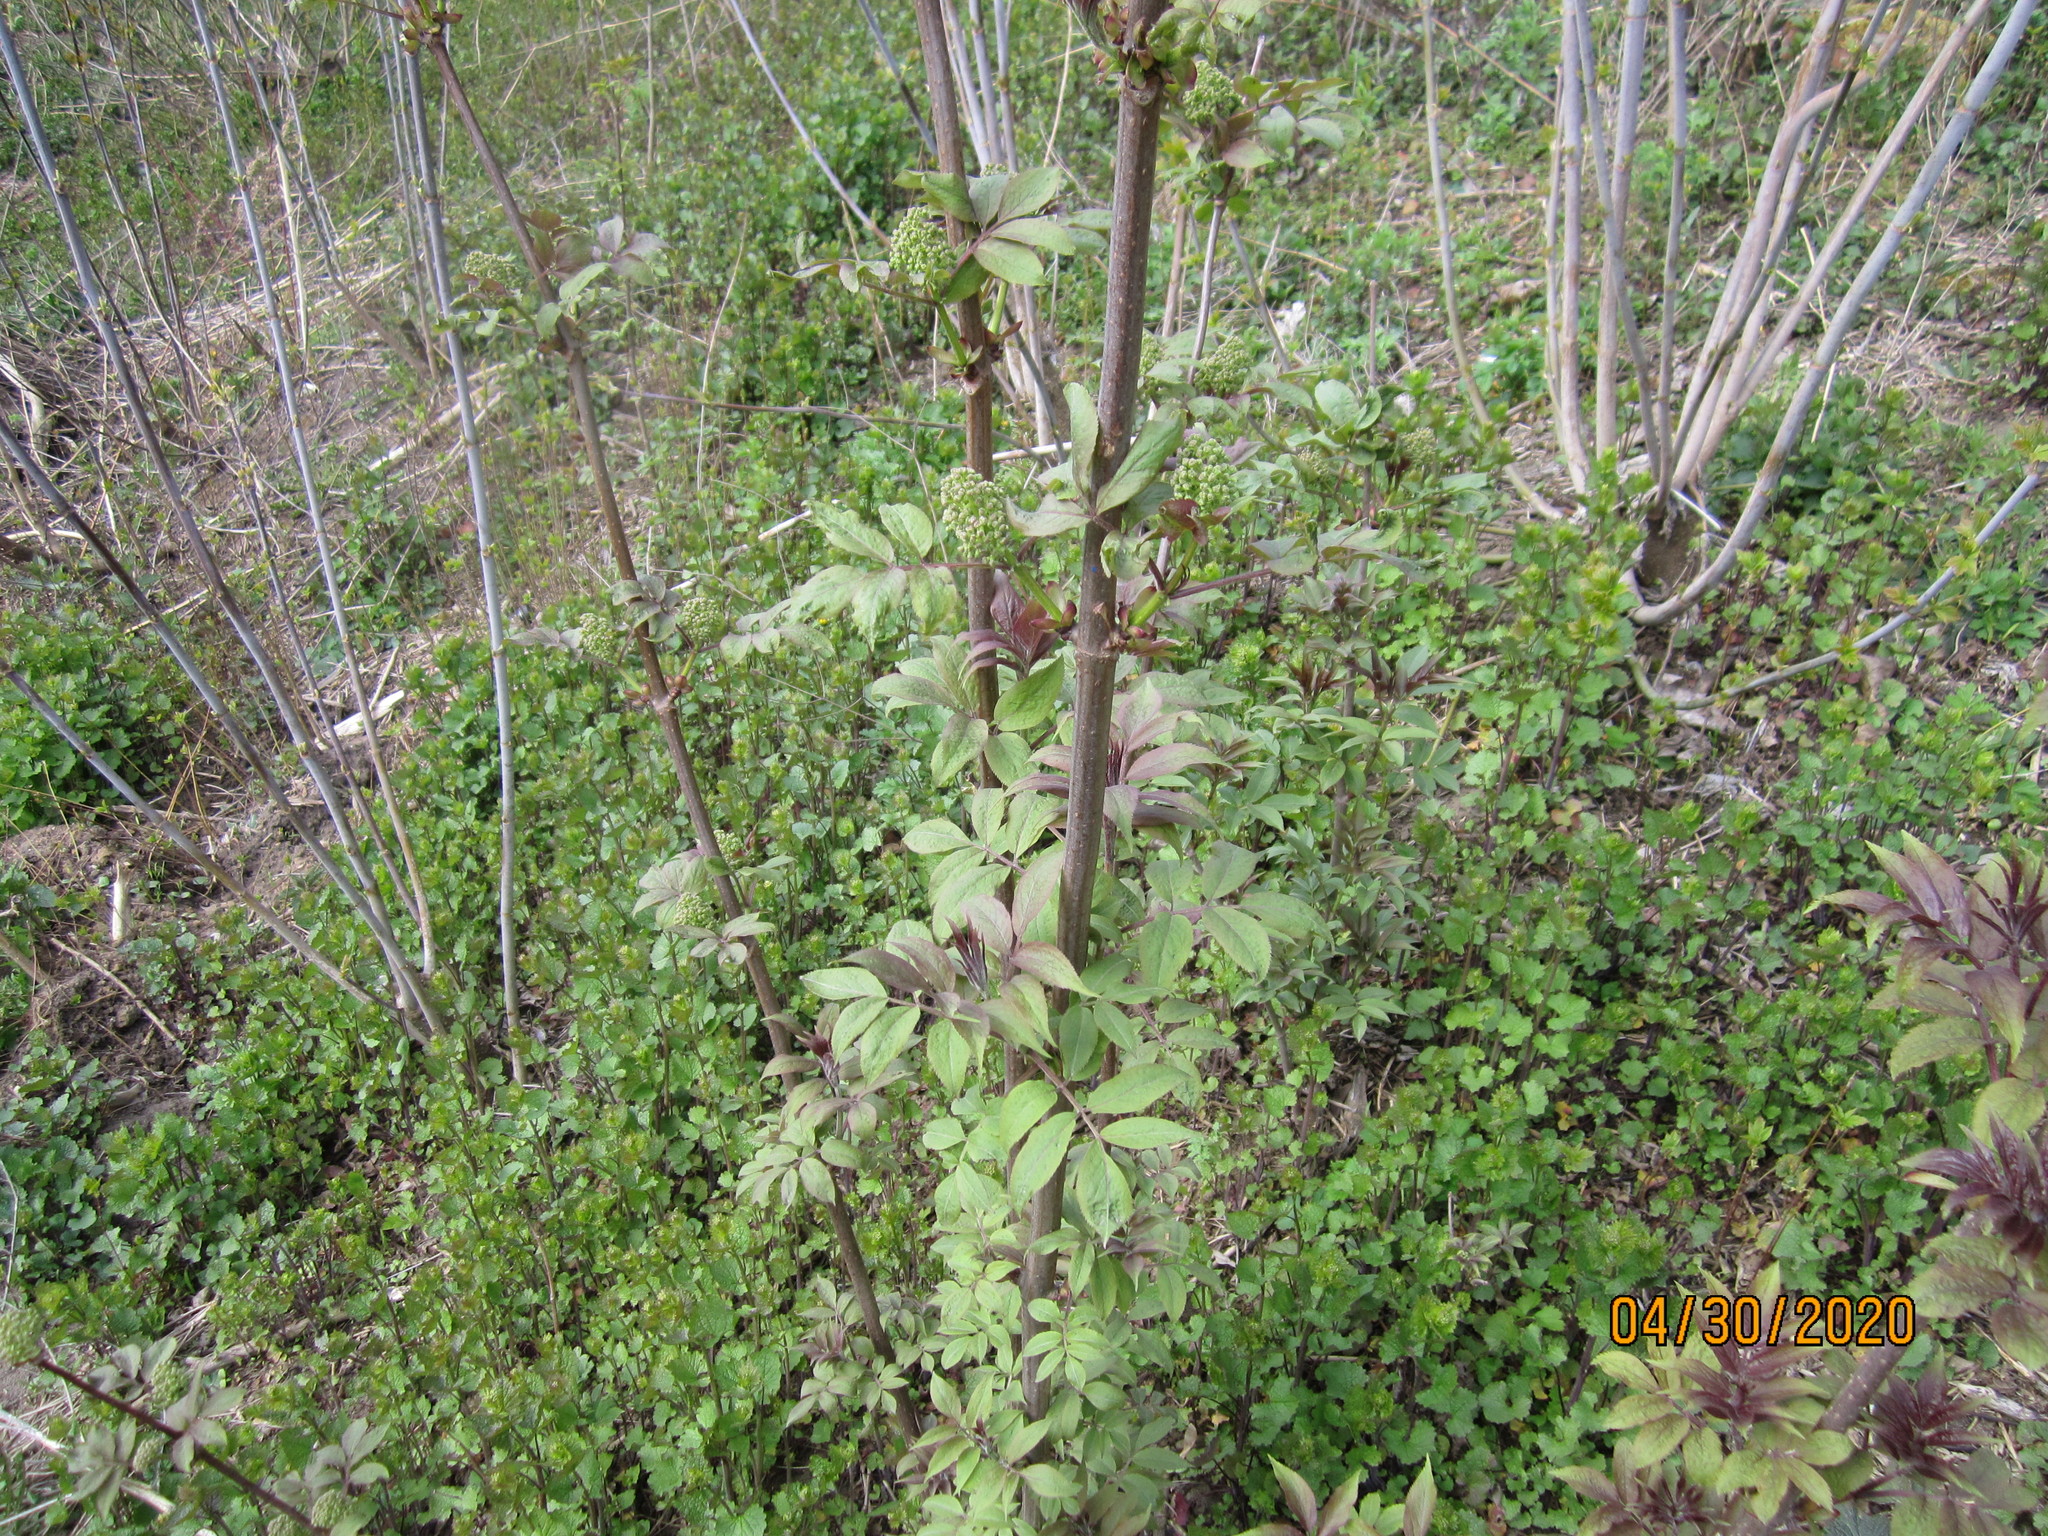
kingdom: Plantae
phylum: Tracheophyta
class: Magnoliopsida
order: Dipsacales
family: Viburnaceae
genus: Sambucus
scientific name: Sambucus racemosa
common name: Red-berried elder
